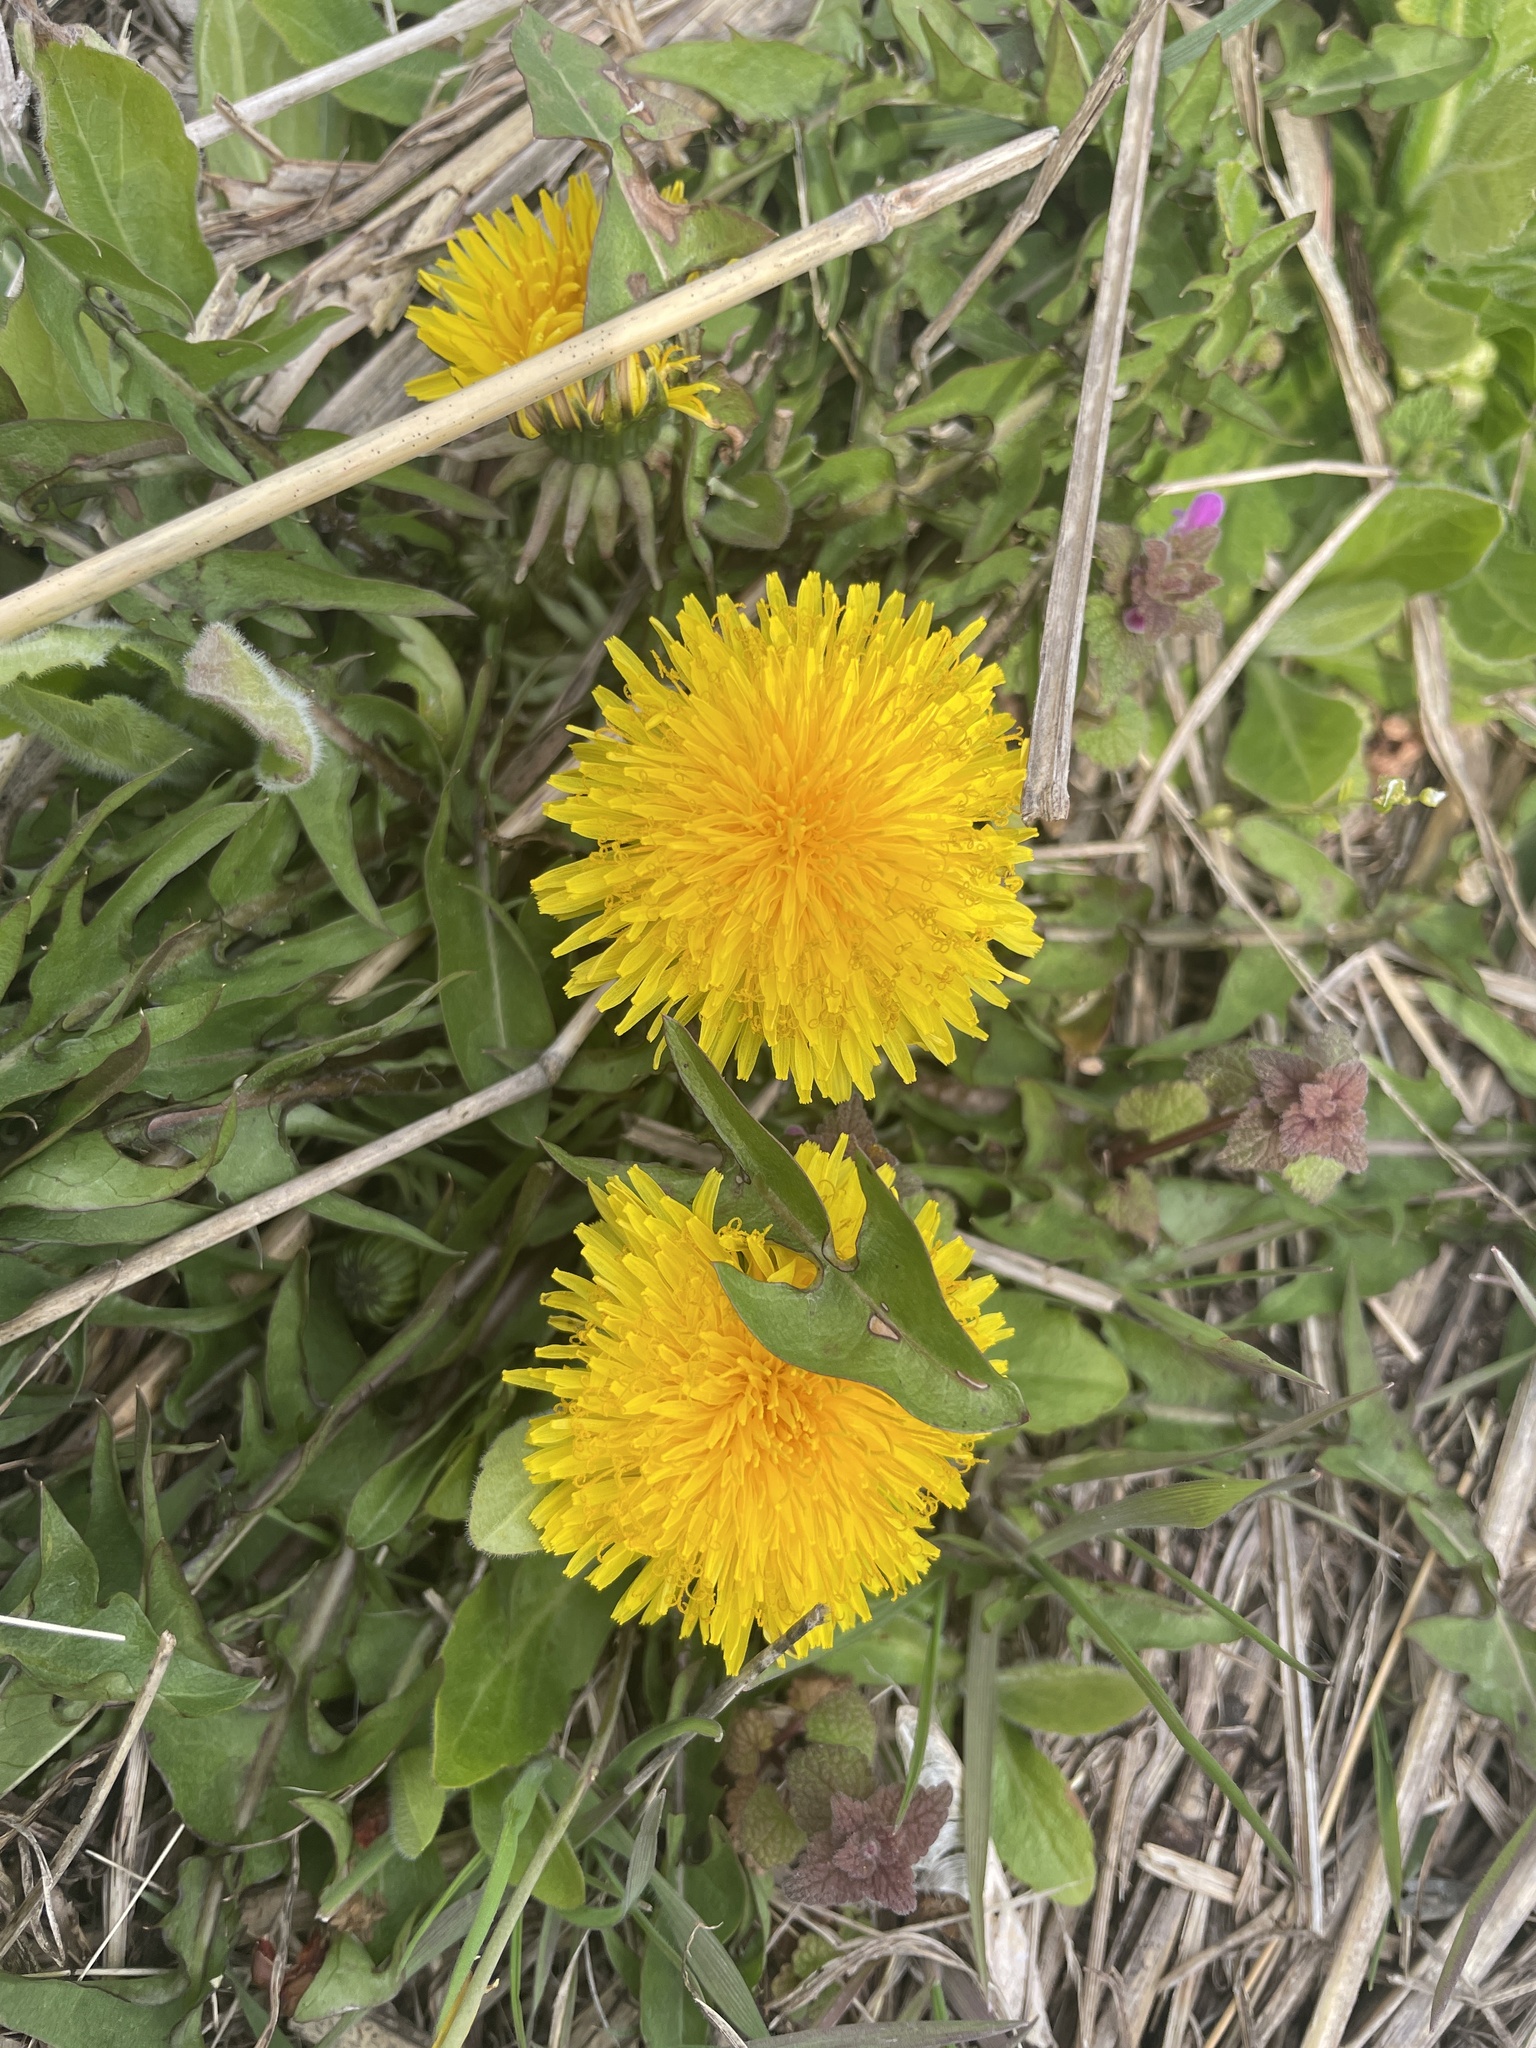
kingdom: Plantae
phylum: Tracheophyta
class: Magnoliopsida
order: Asterales
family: Asteraceae
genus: Taraxacum
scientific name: Taraxacum officinale
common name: Common dandelion
